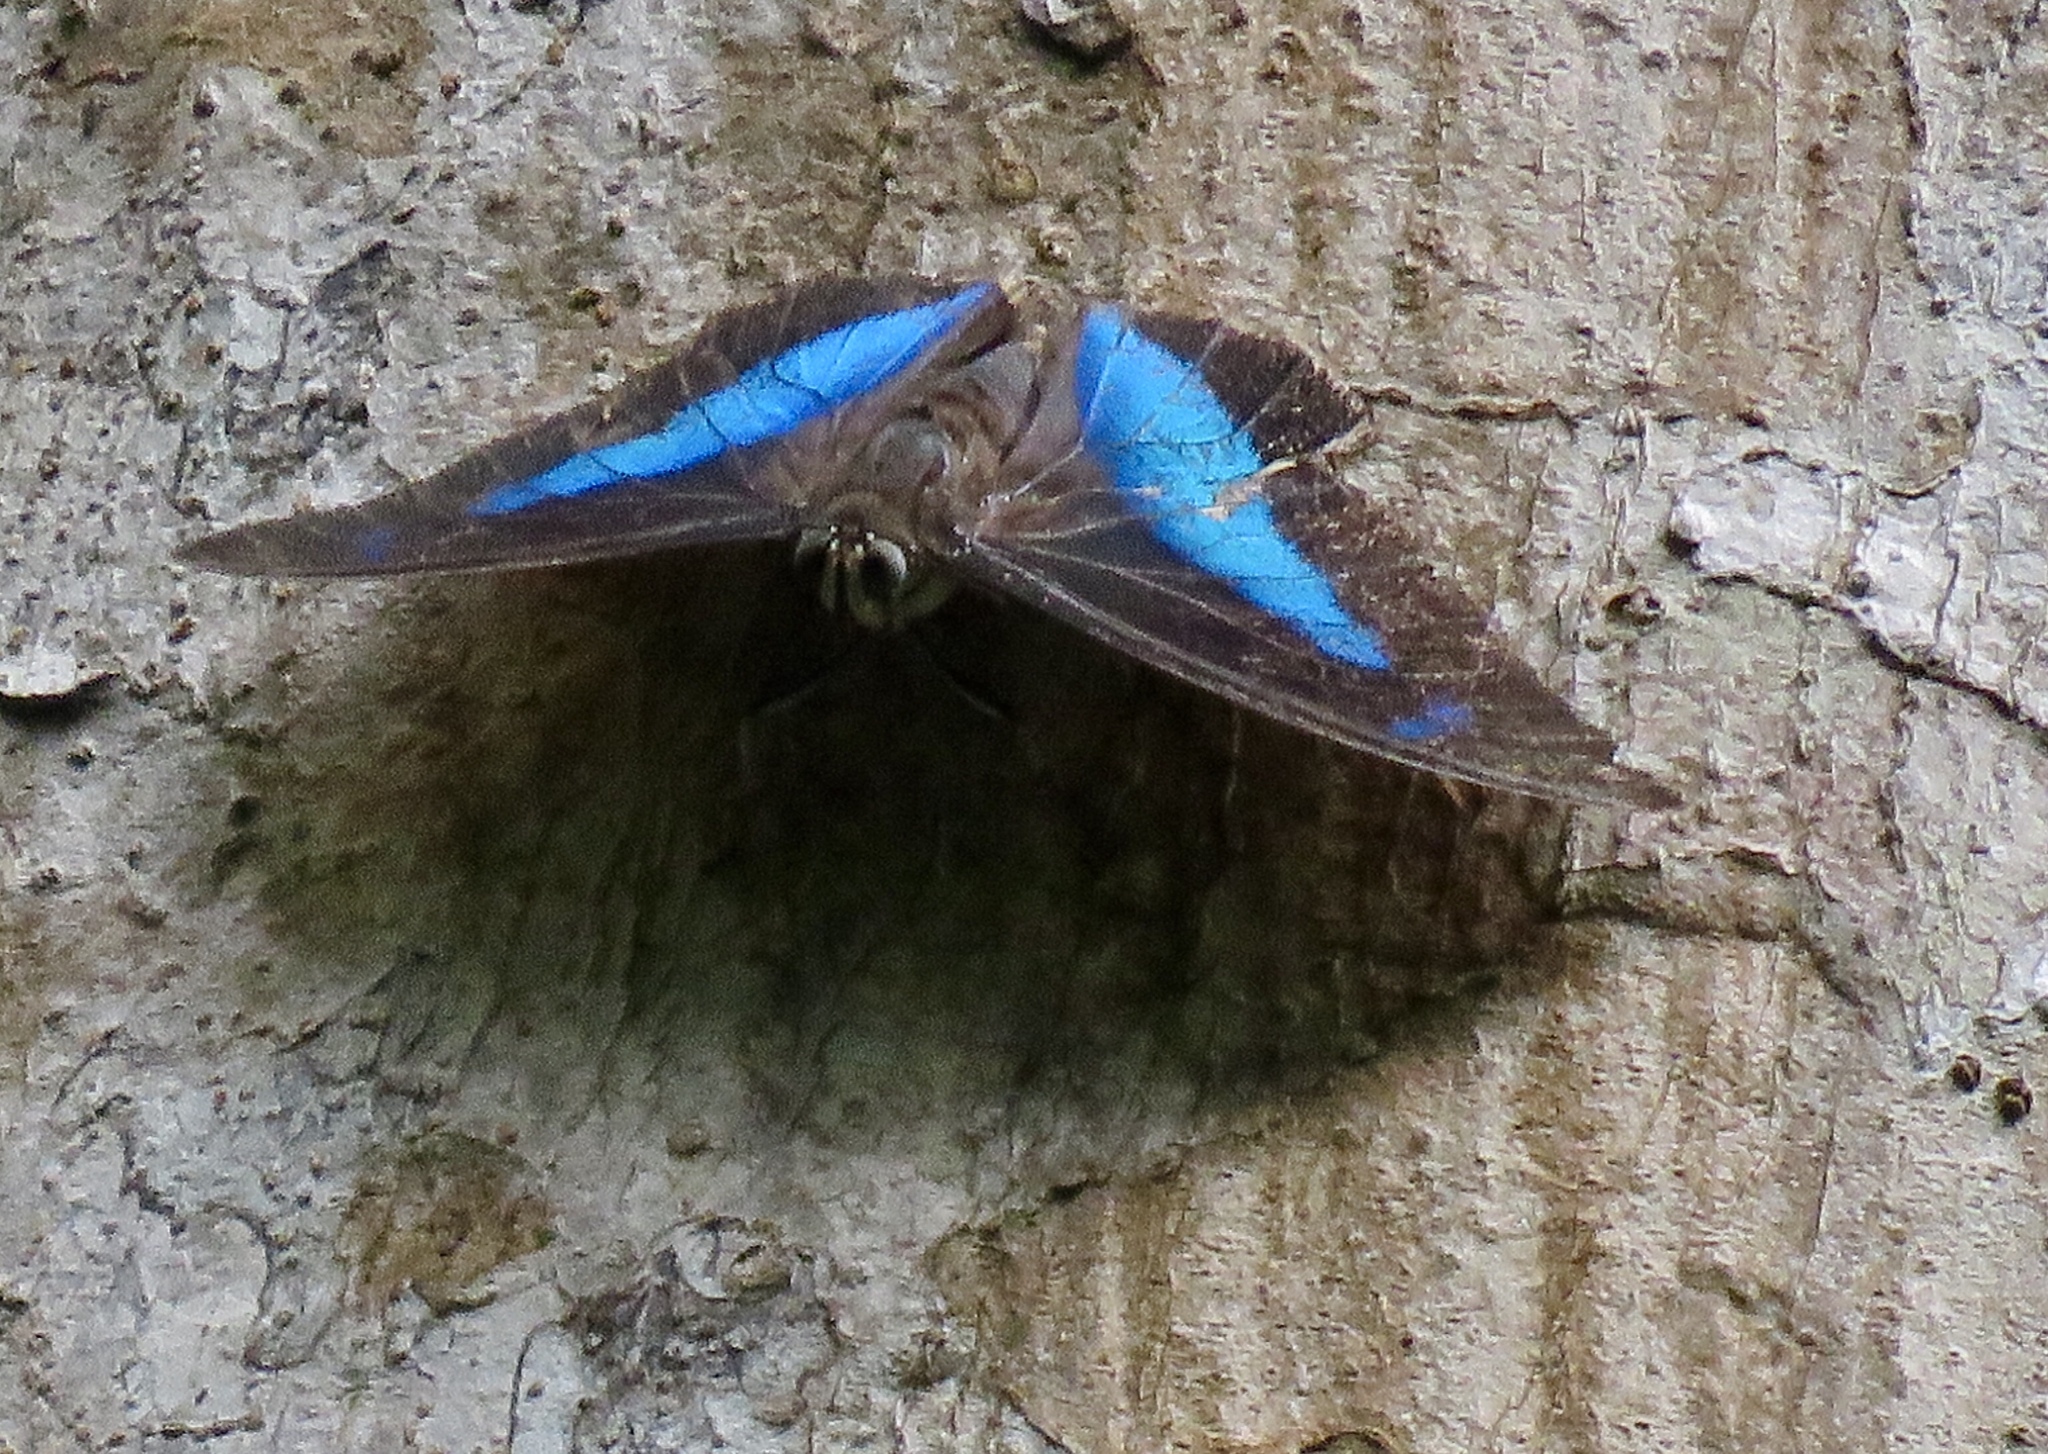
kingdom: Animalia
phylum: Arthropoda
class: Insecta
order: Lepidoptera
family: Nymphalidae
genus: Prepona
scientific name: Prepona demophon
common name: One-spotted prepona
